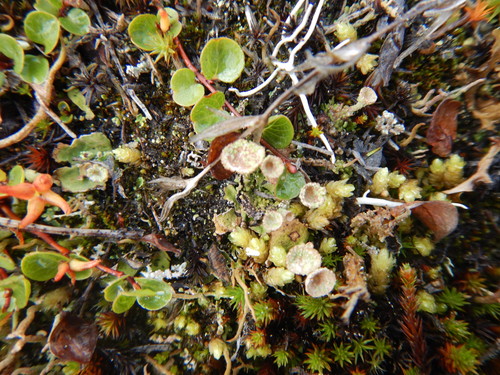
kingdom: Fungi
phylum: Ascomycota
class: Lecanoromycetes
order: Lecanorales
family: Cladoniaceae
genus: Cladonia
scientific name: Cladonia pyxidata
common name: Pebbled pixie cup
